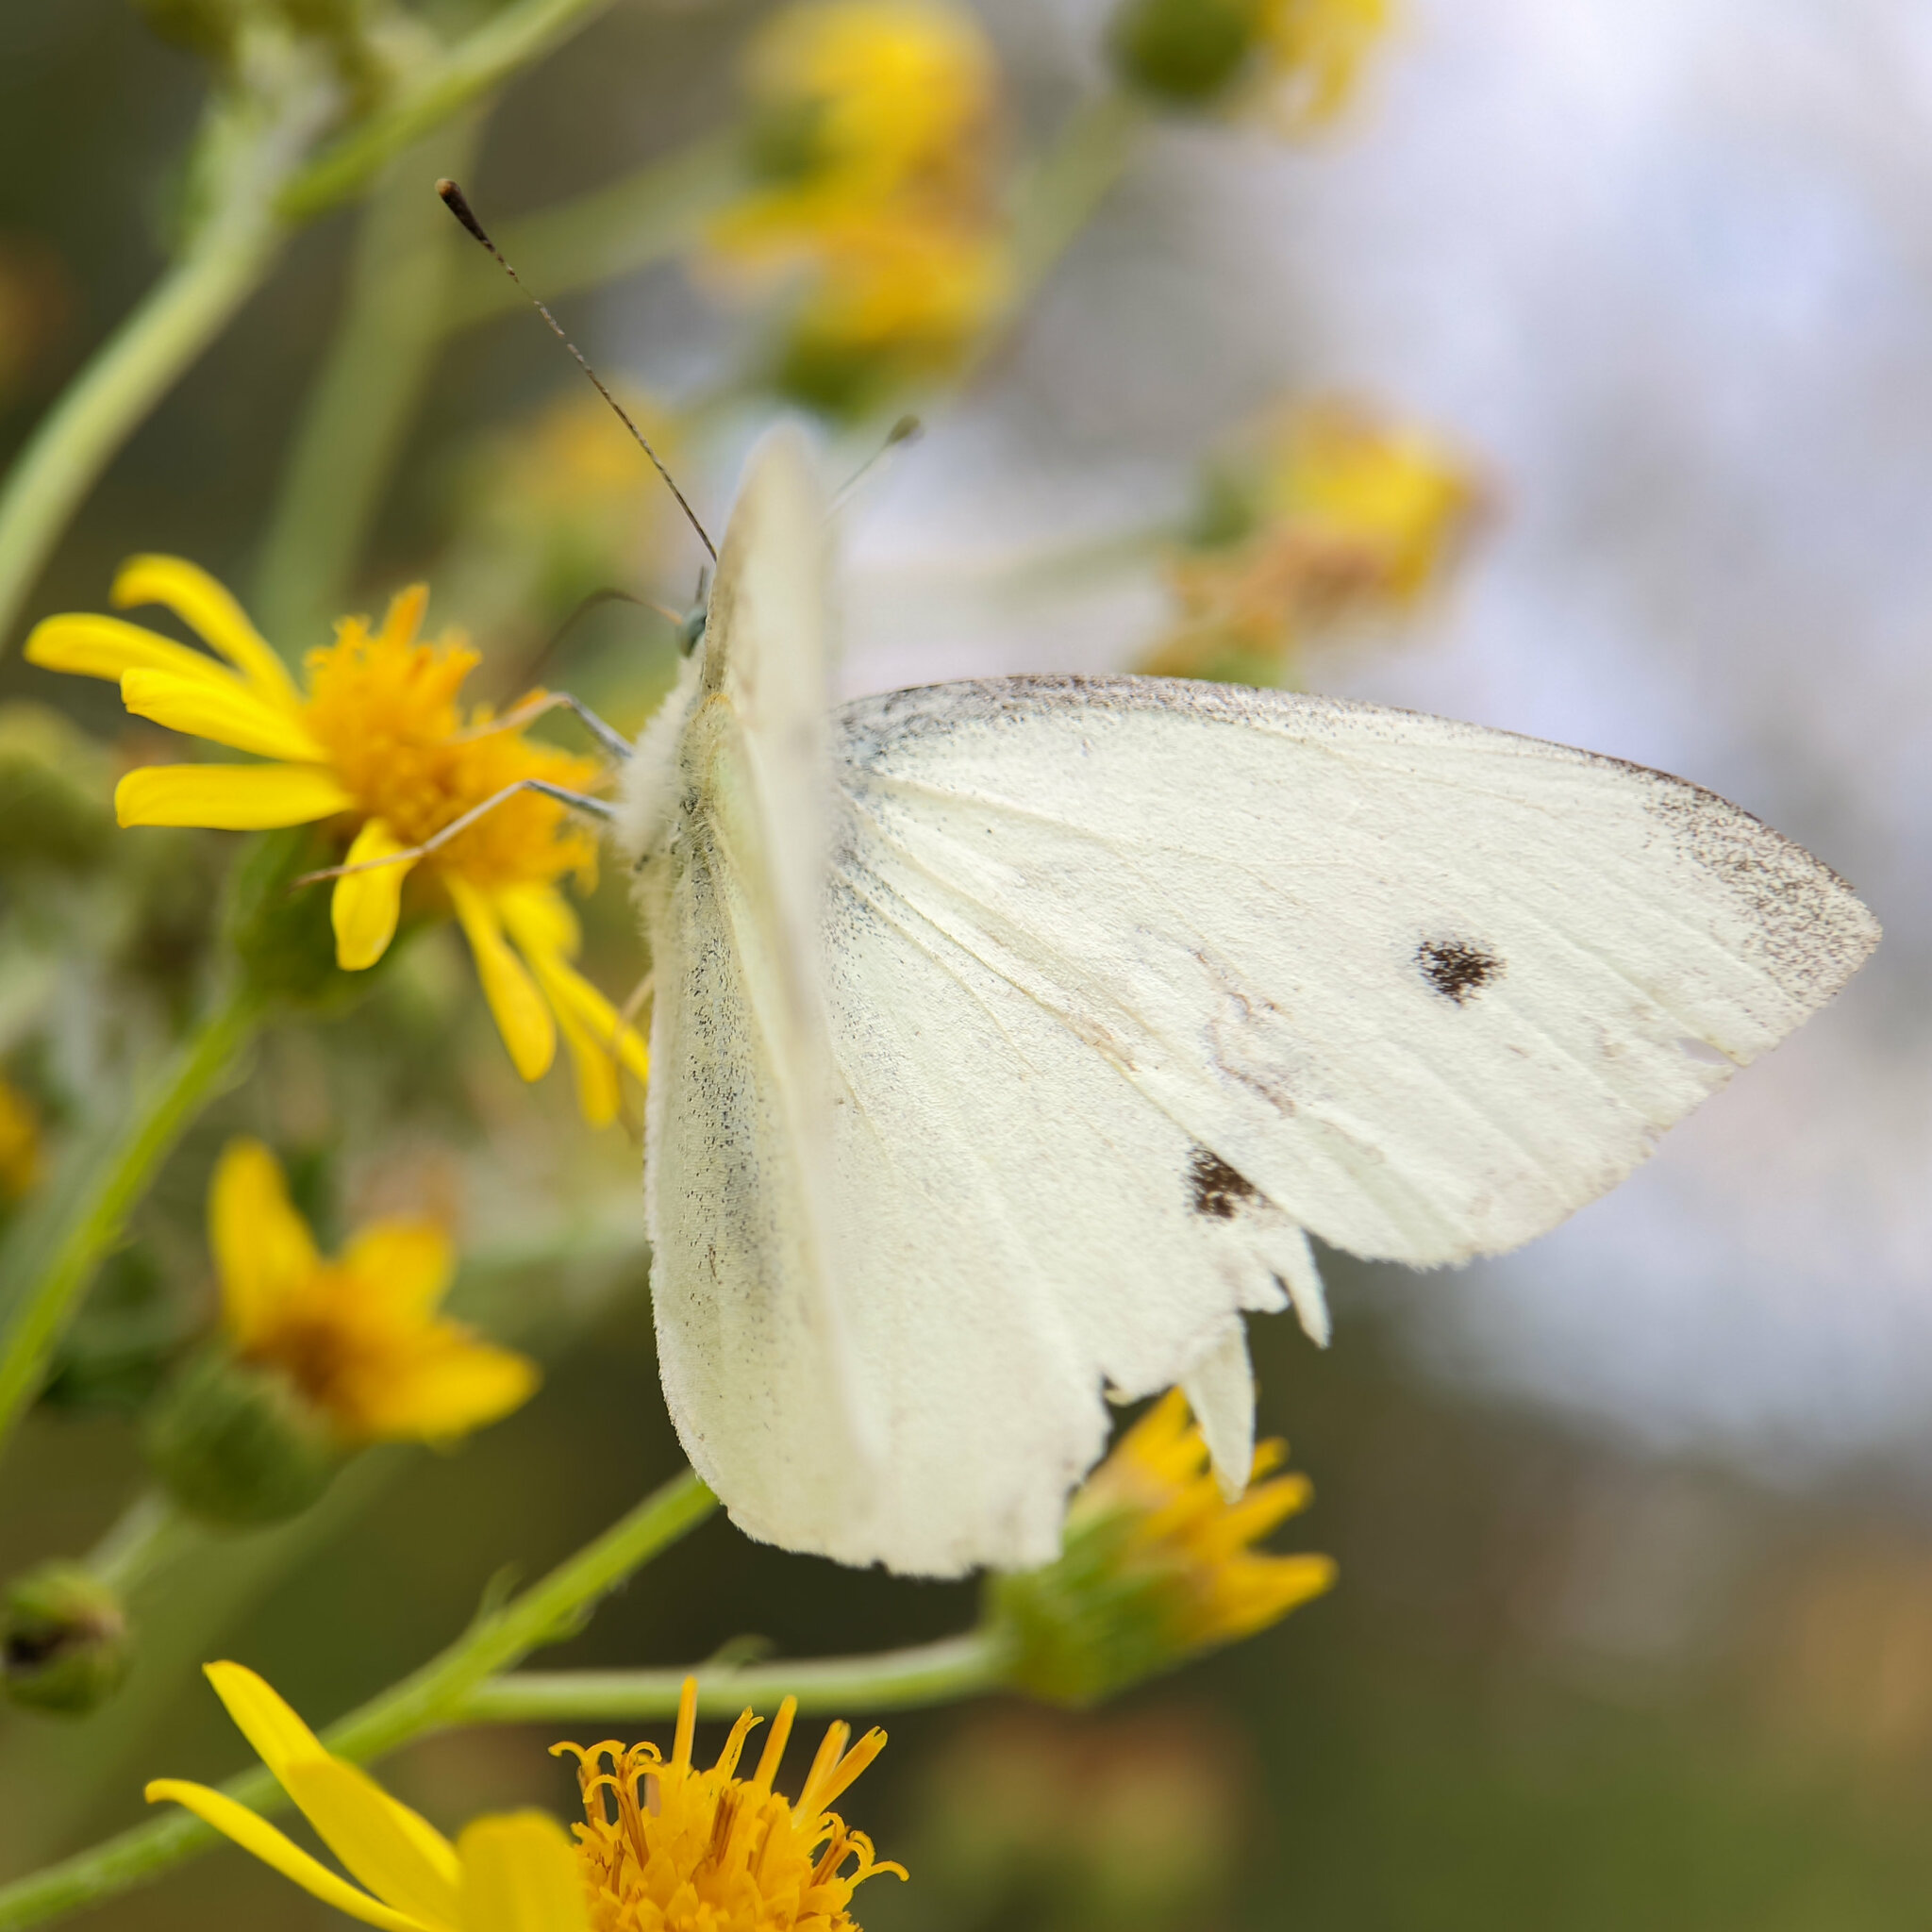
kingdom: Animalia
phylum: Arthropoda
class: Insecta
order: Lepidoptera
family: Pieridae
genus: Pieris
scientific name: Pieris rapae
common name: Small white
